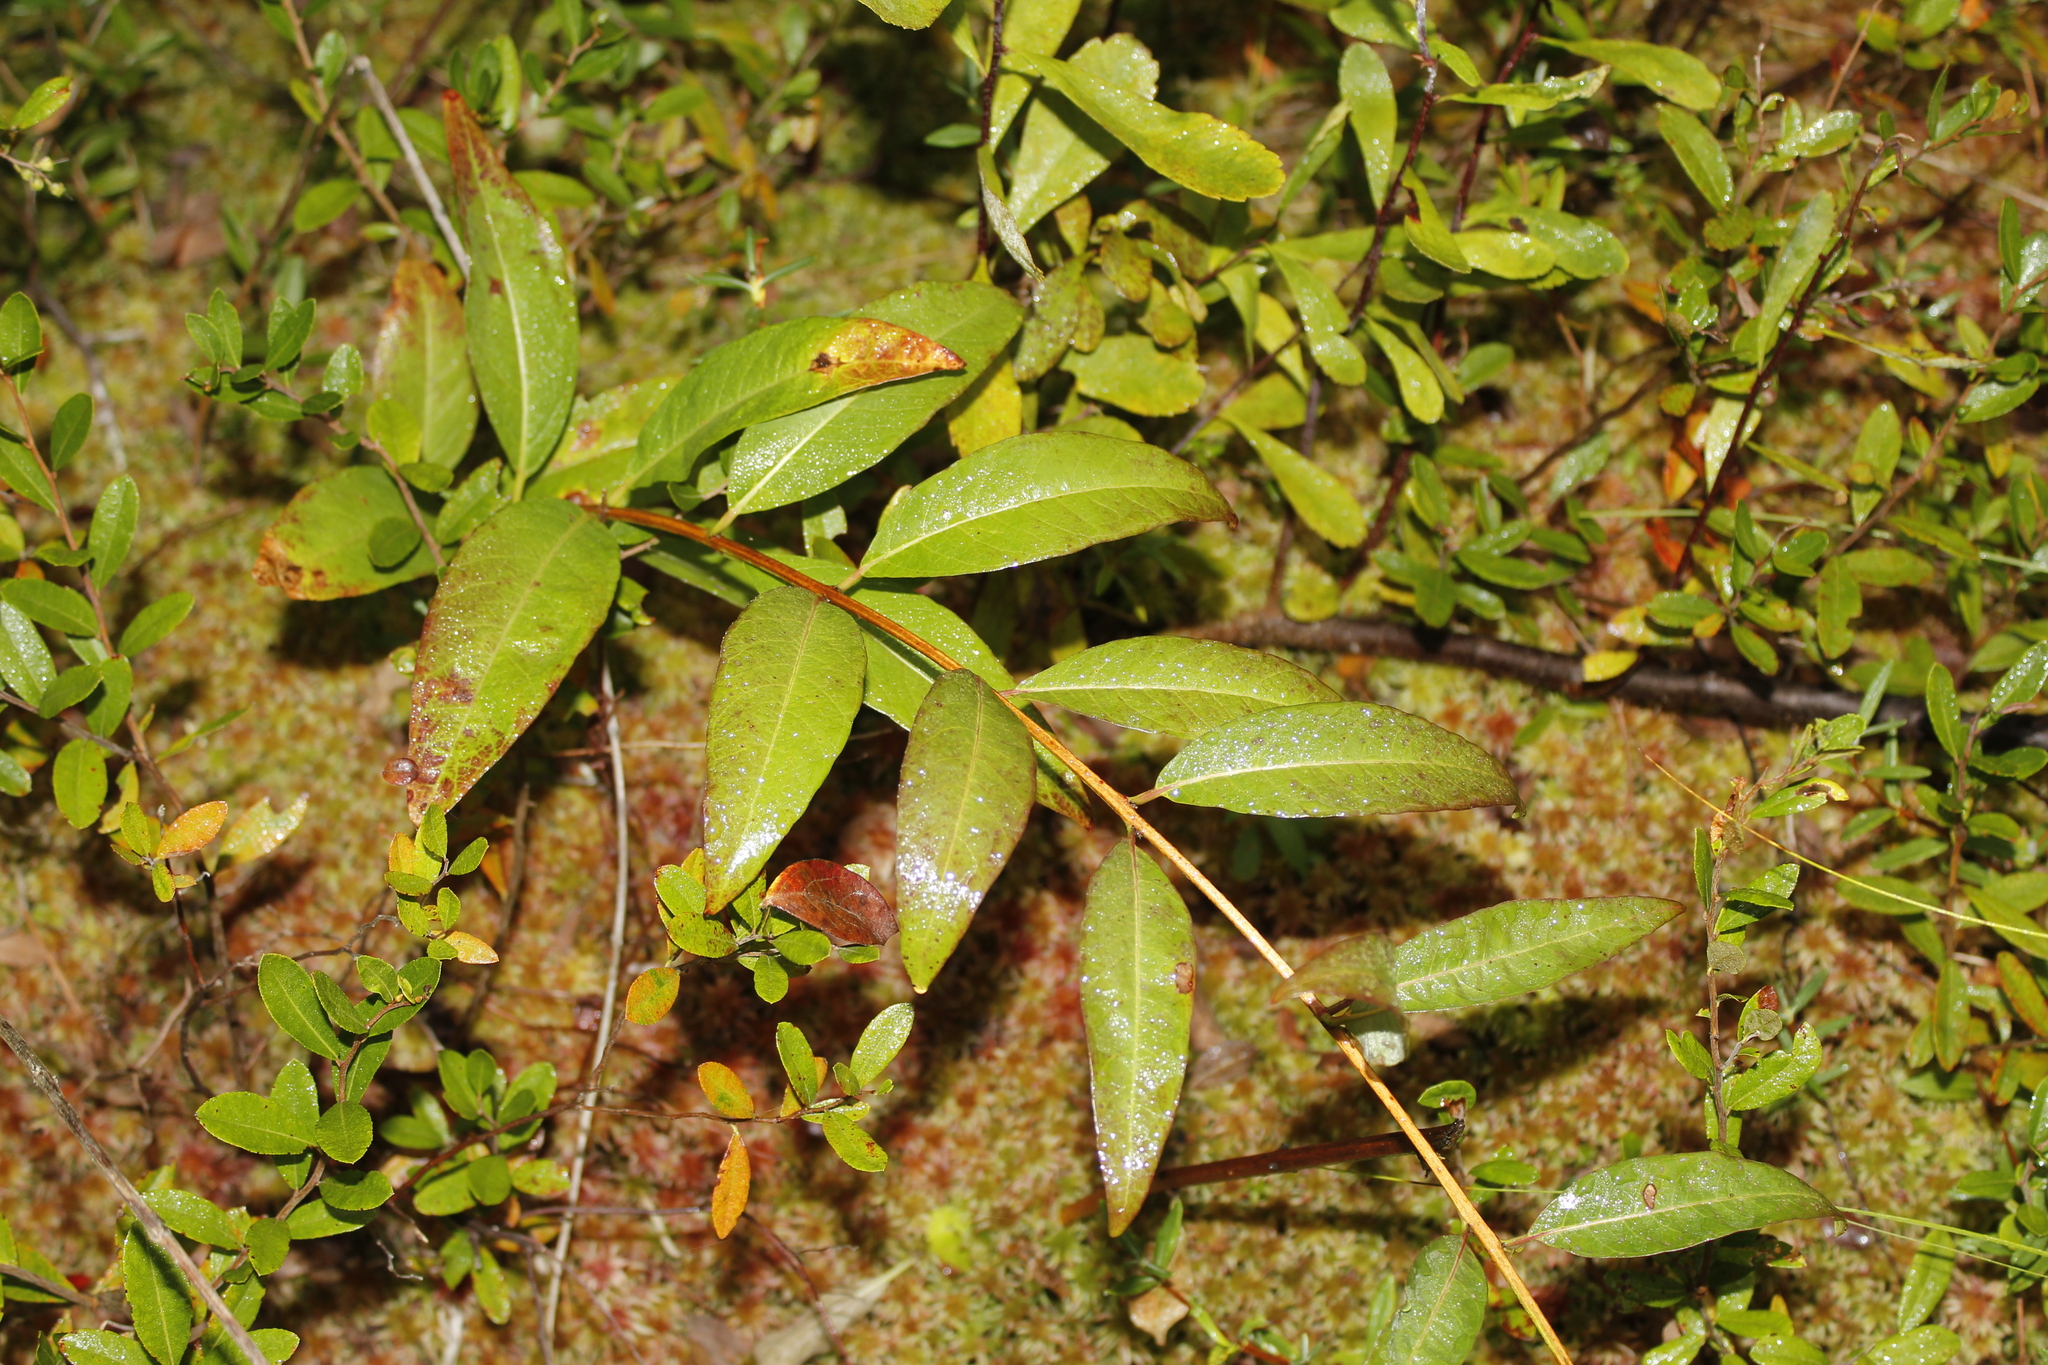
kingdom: Plantae
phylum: Tracheophyta
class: Magnoliopsida
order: Myrtales
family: Lythraceae
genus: Decodon
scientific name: Decodon verticillatus
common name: Hairy swamp loosestrife
